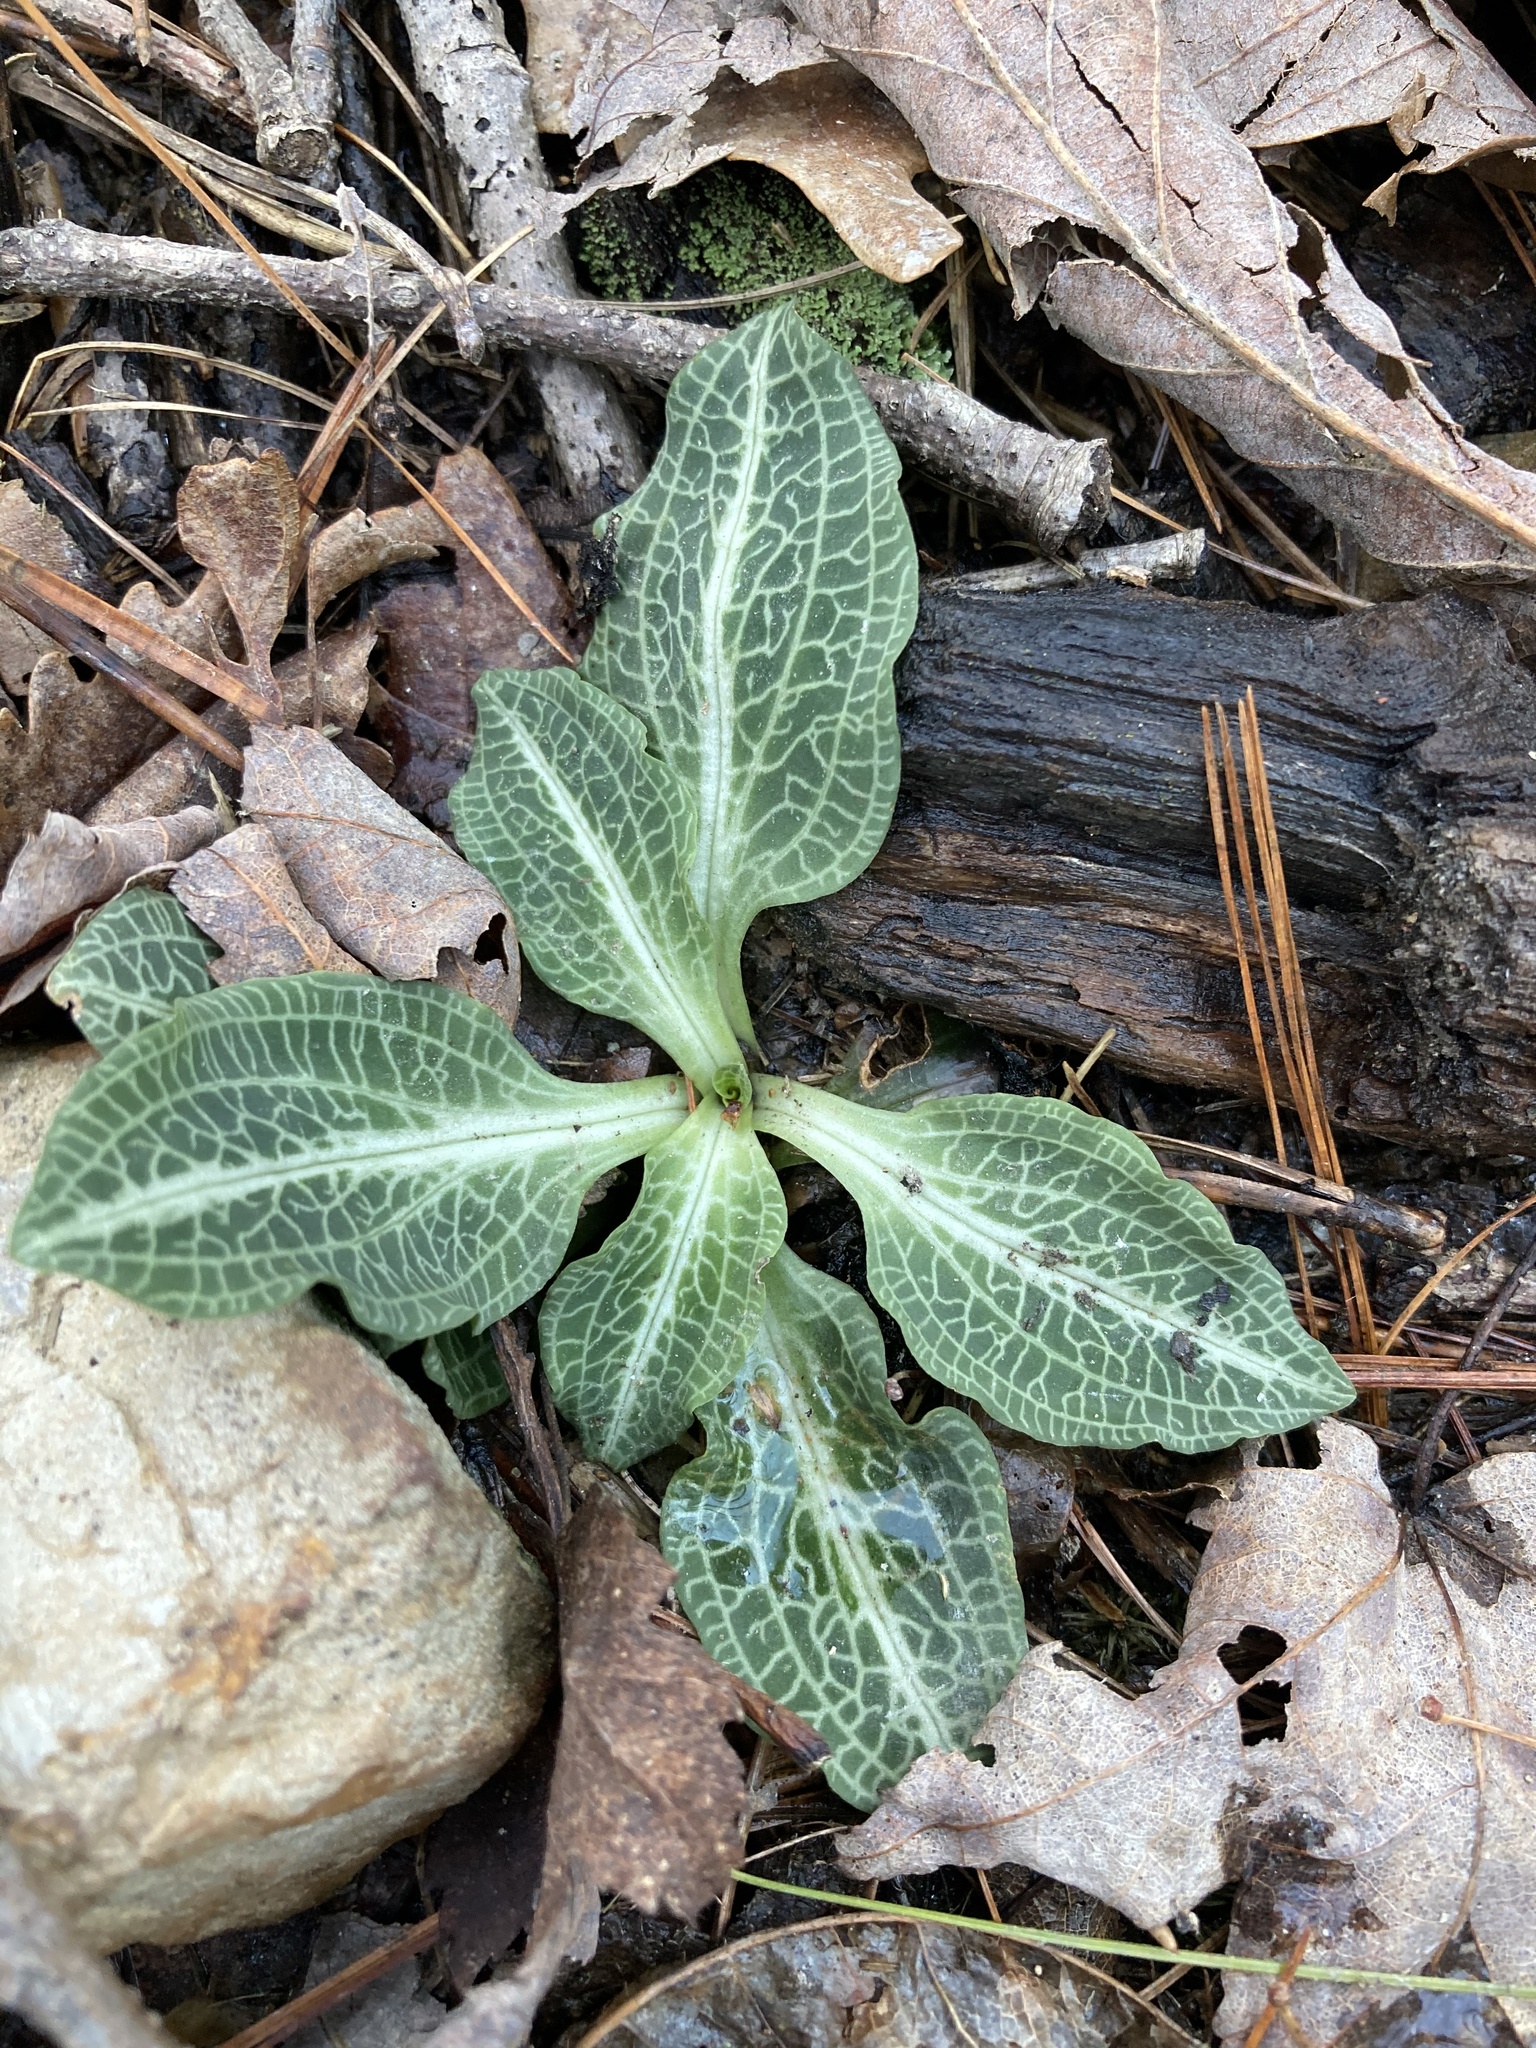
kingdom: Plantae
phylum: Tracheophyta
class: Liliopsida
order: Asparagales
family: Orchidaceae
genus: Goodyera
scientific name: Goodyera pubescens
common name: Downy rattlesnake-plantain
